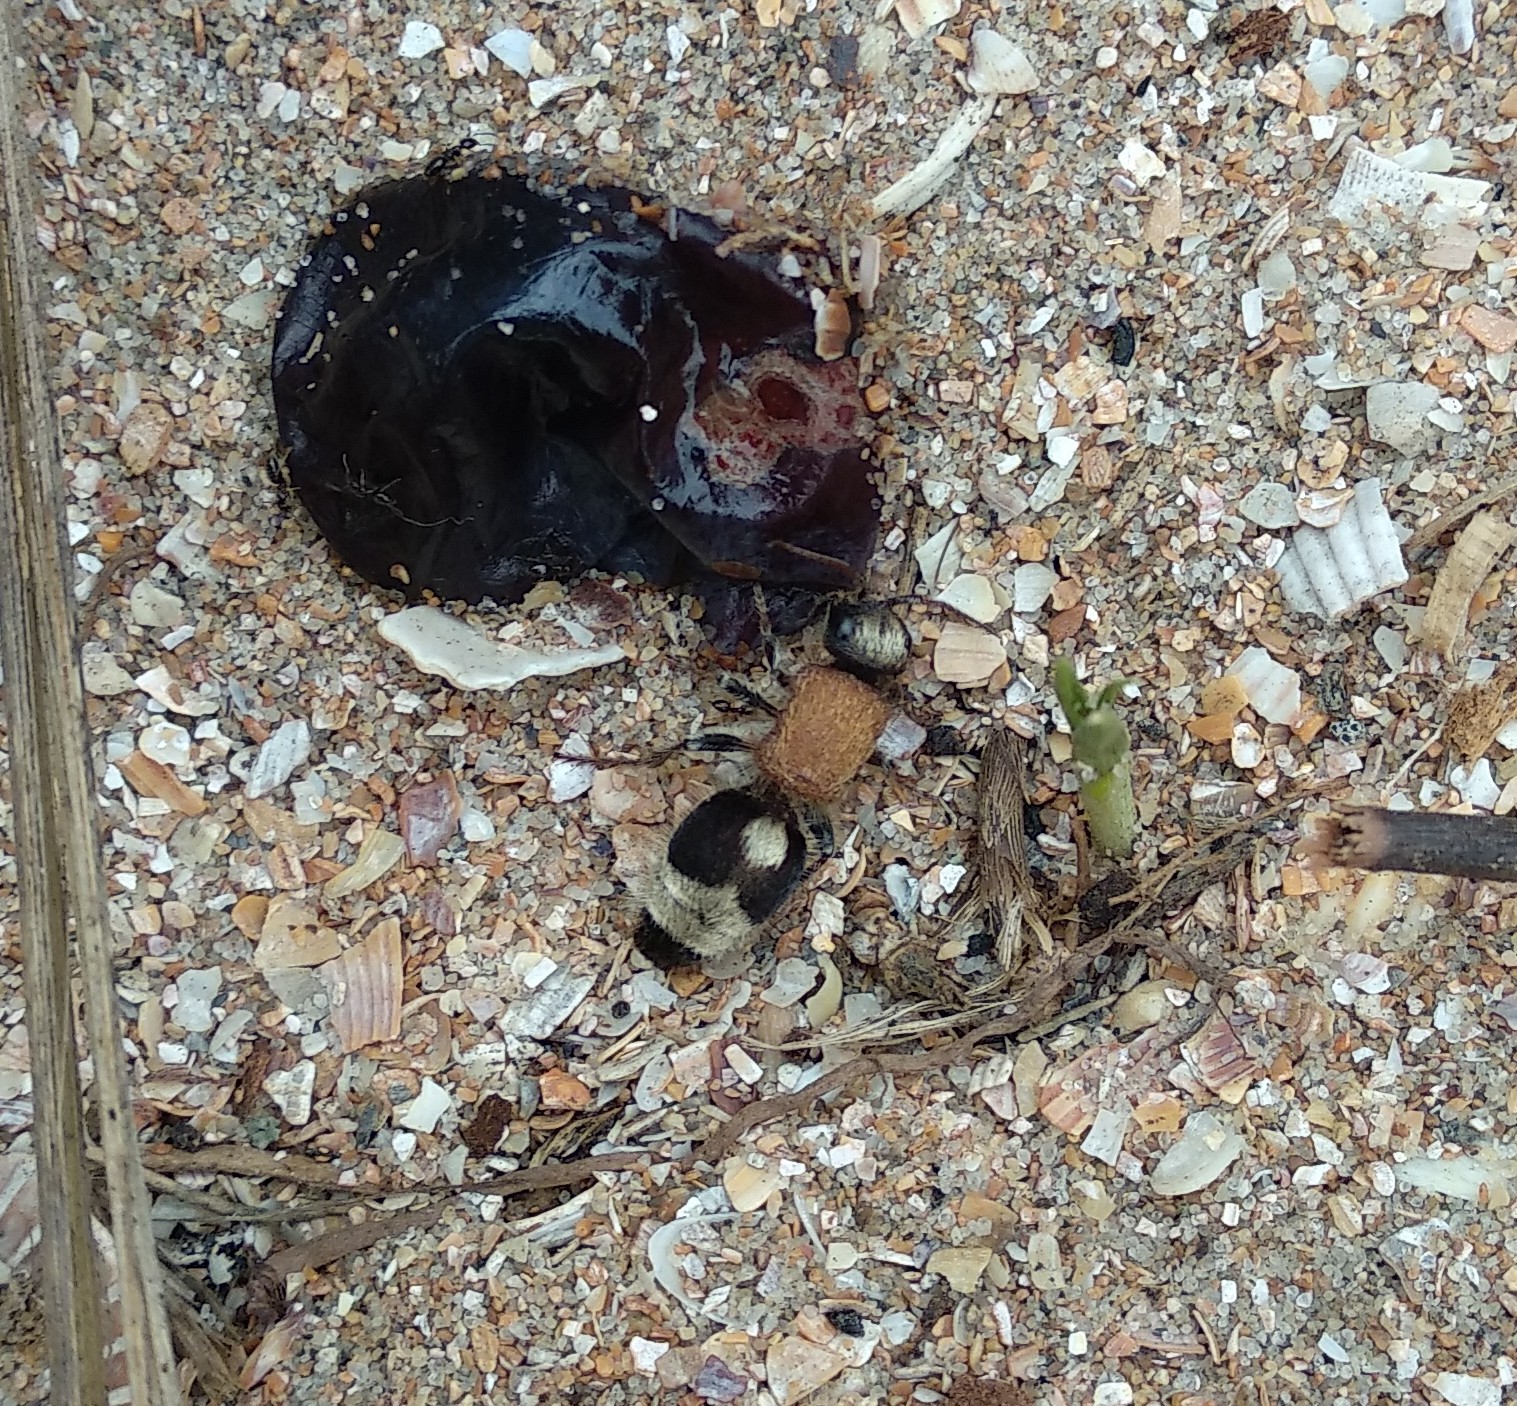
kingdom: Animalia
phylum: Arthropoda
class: Insecta
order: Hymenoptera
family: Mutillidae
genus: Nemka
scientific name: Nemka viduata
